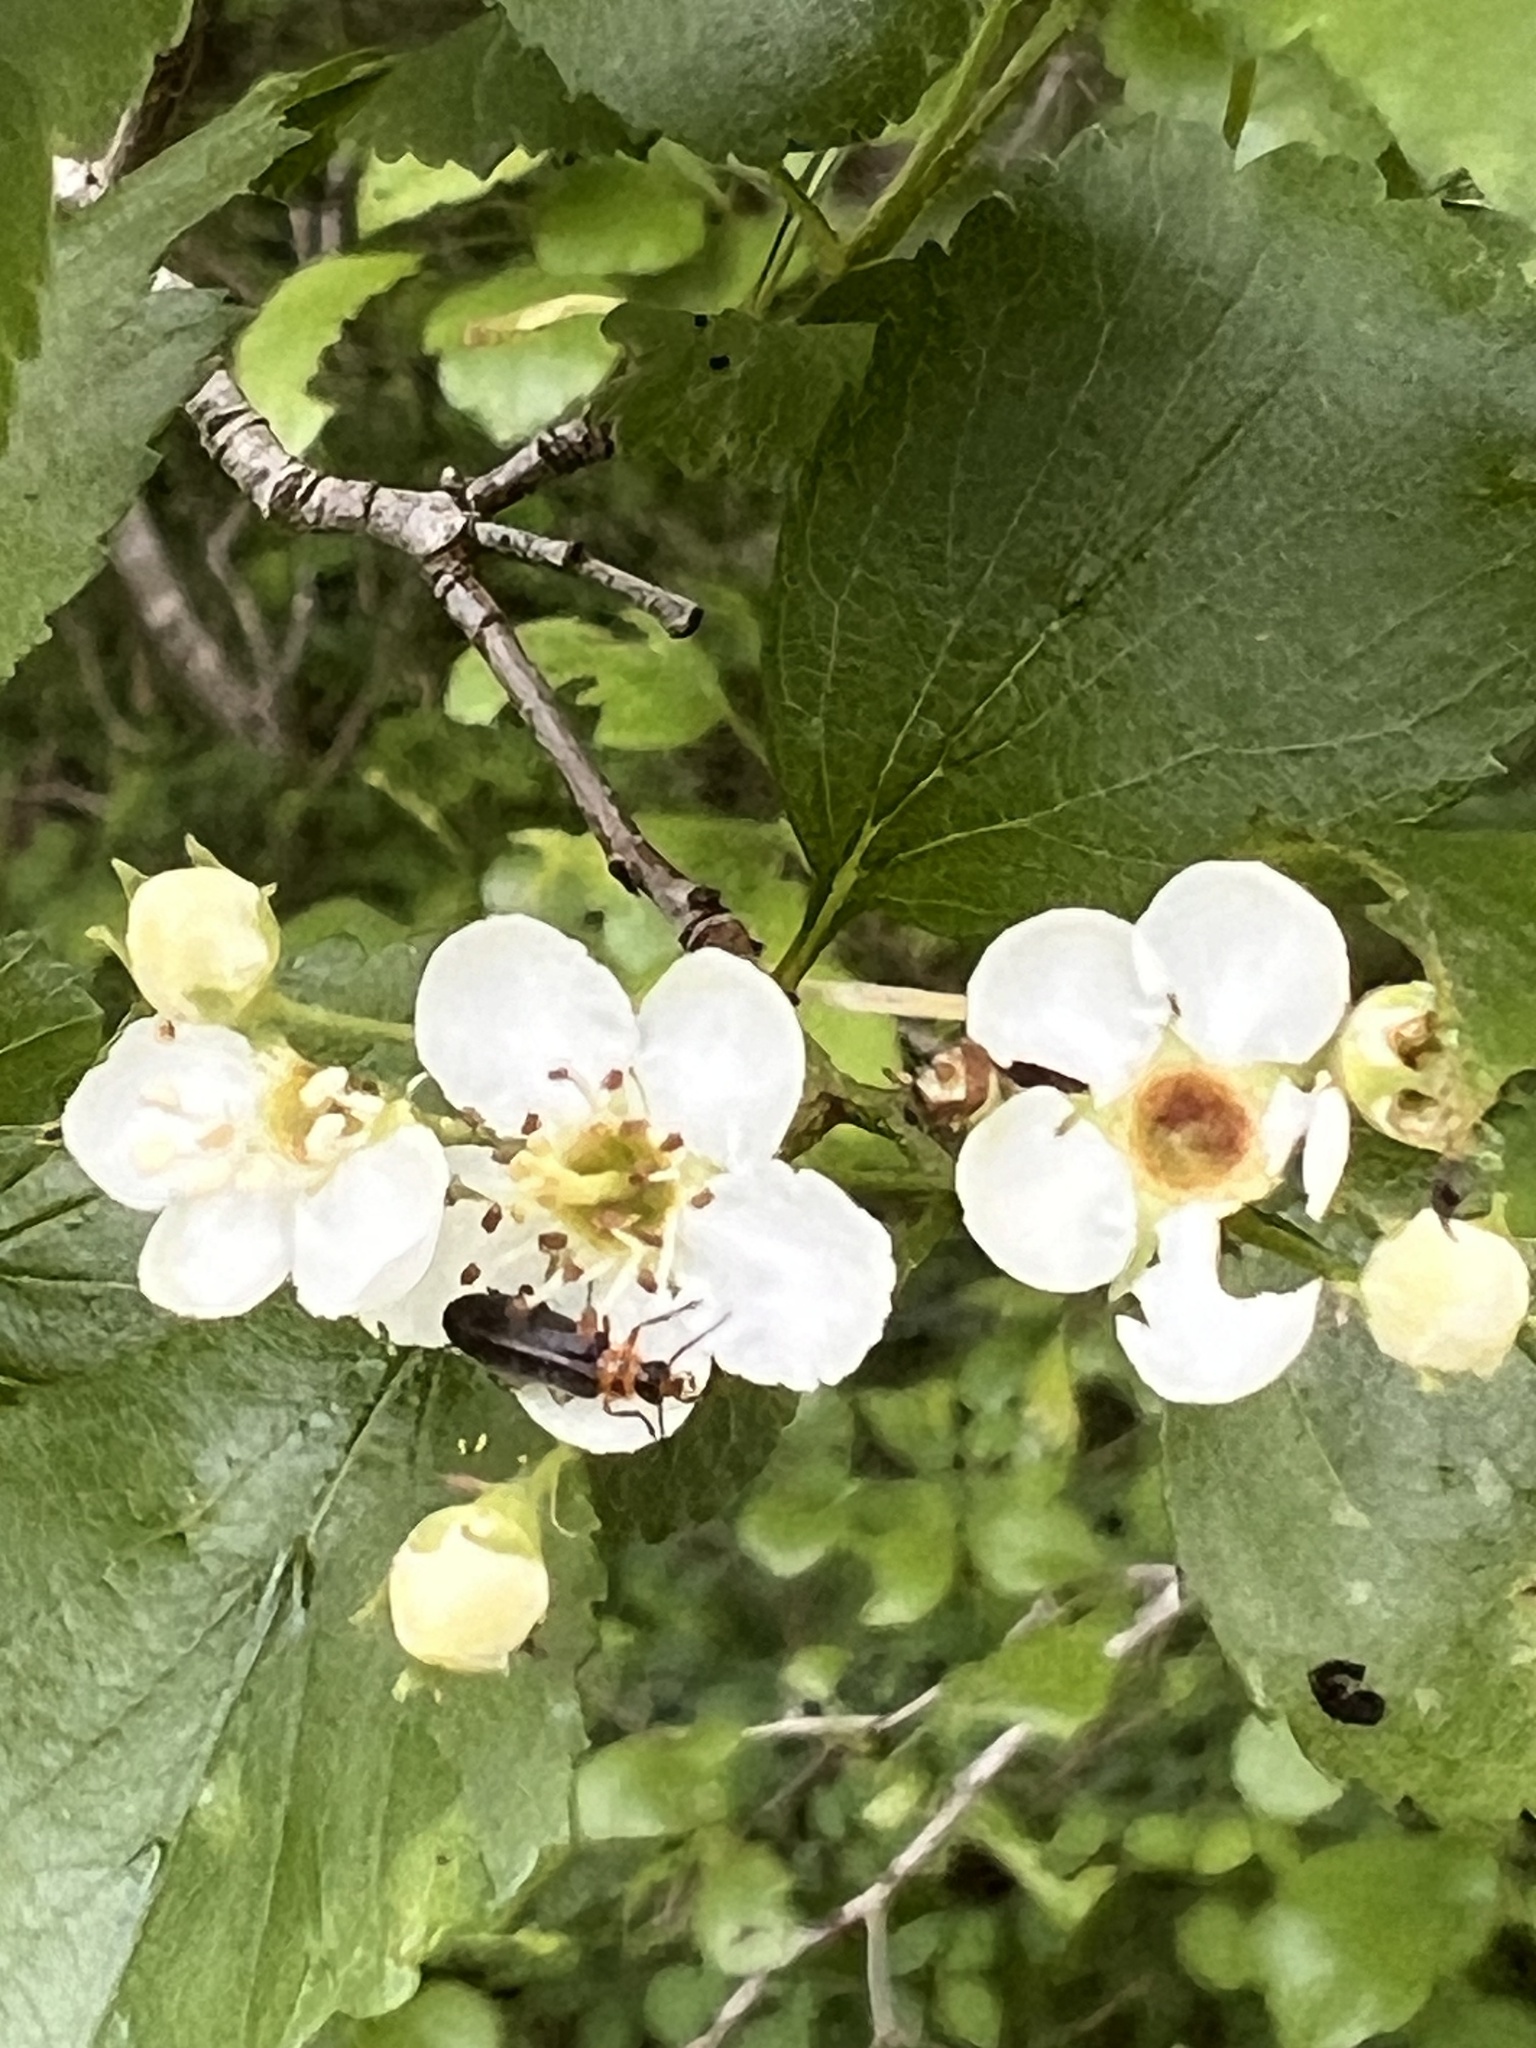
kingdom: Animalia
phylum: Arthropoda
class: Insecta
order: Coleoptera
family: Melandryidae
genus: Osphya
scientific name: Osphya varians
